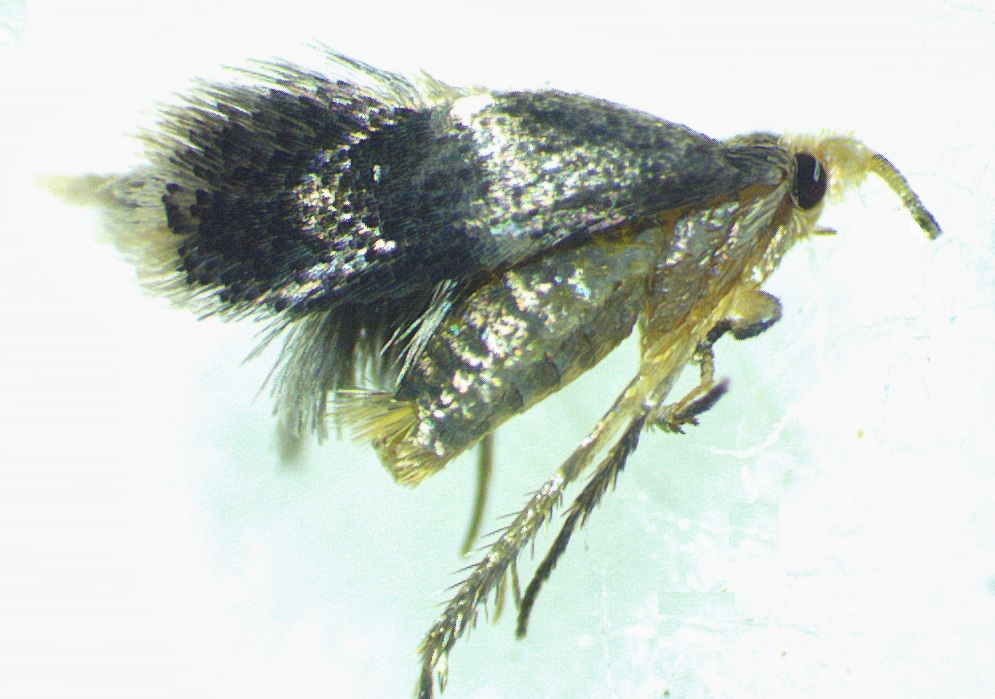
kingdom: Animalia
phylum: Arthropoda
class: Insecta
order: Lepidoptera
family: Nepticulidae
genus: Ectoedemia
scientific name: Ectoedemia platanella
